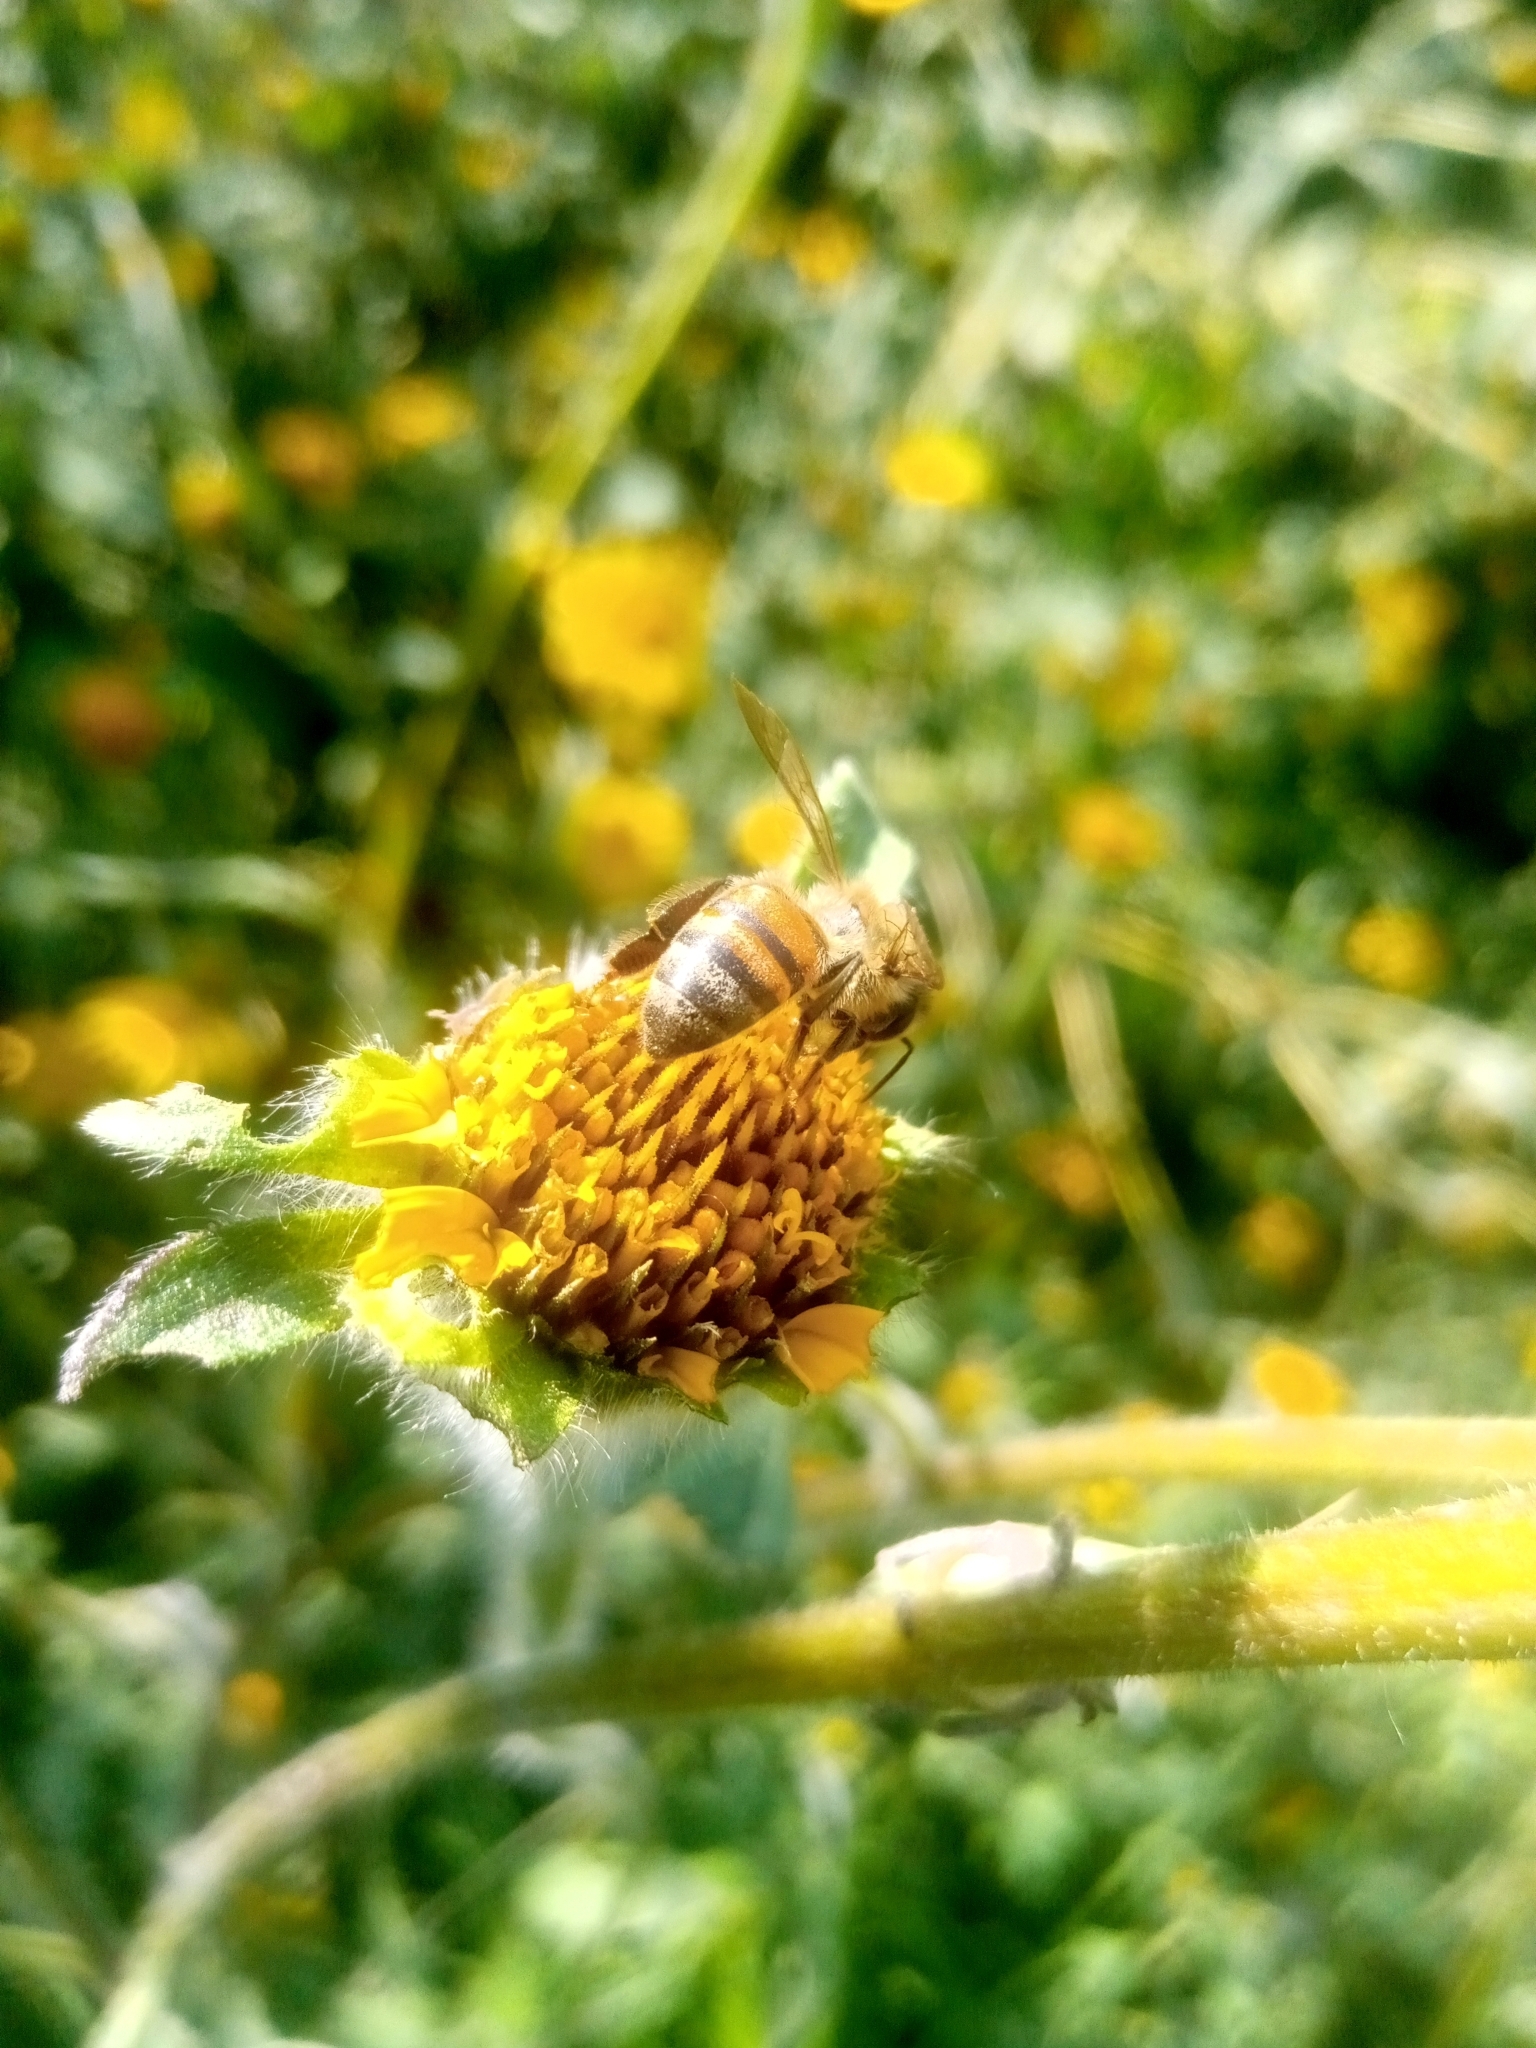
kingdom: Animalia
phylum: Arthropoda
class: Insecta
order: Hymenoptera
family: Apidae
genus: Apis
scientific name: Apis mellifera
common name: Honey bee
